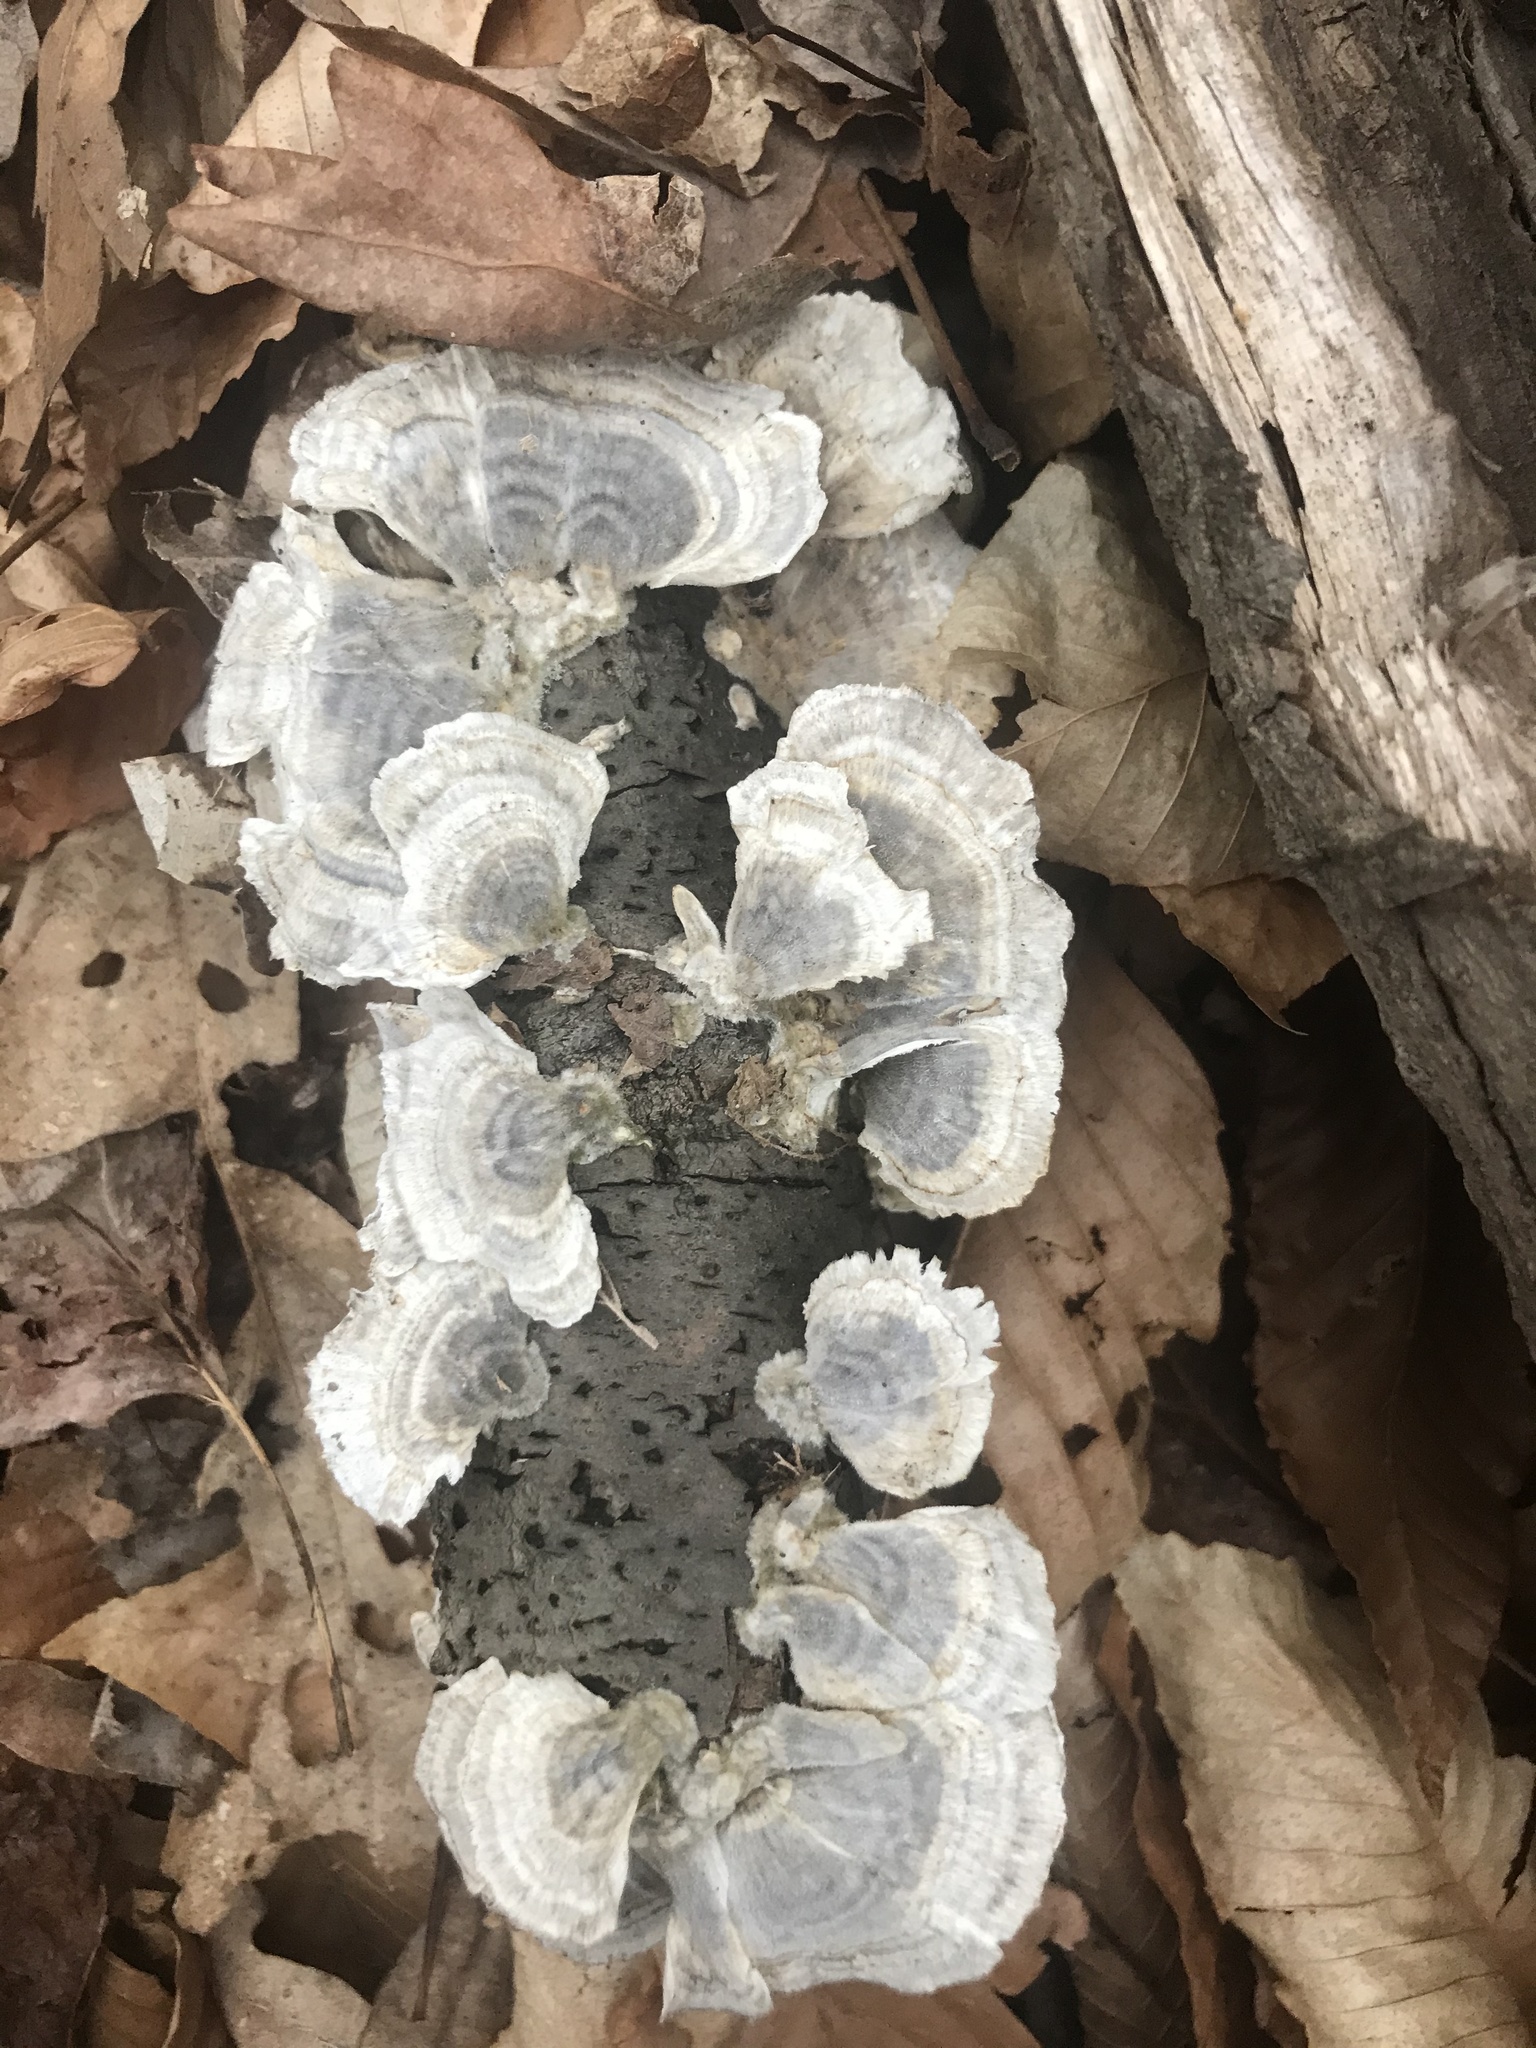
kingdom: Fungi
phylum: Basidiomycota
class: Agaricomycetes
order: Polyporales
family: Polyporaceae
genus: Trametes
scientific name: Trametes versicolor
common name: Turkeytail
